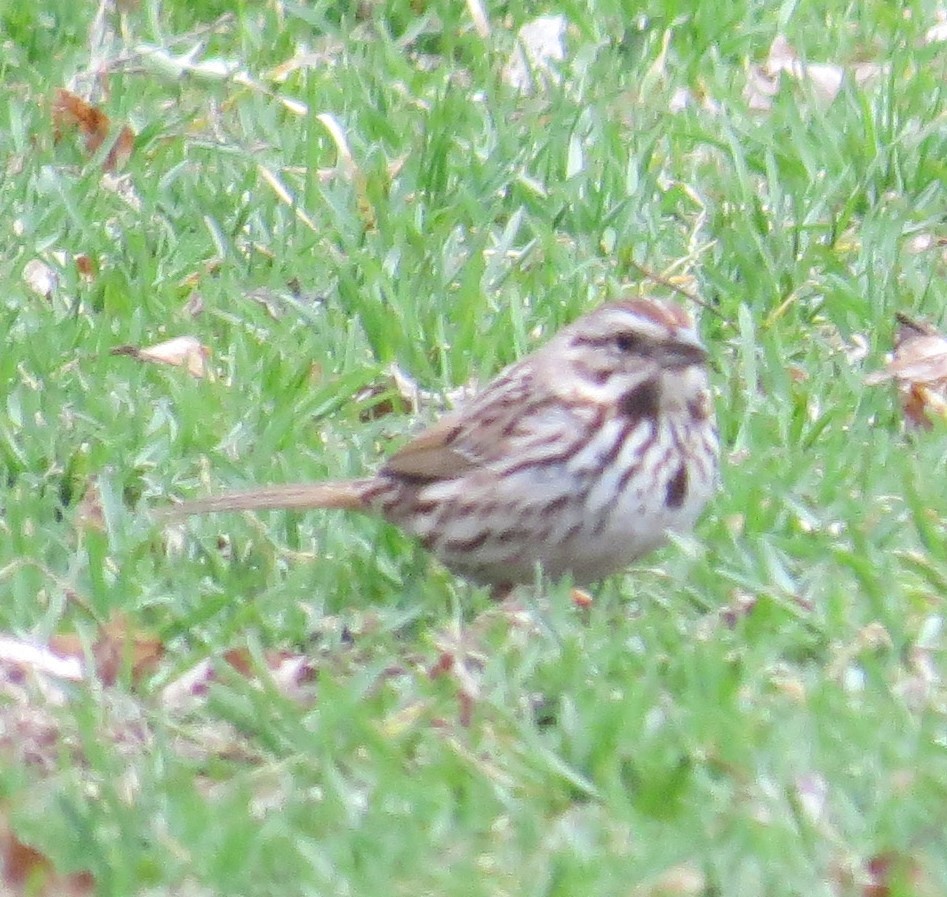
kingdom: Animalia
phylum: Chordata
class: Aves
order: Passeriformes
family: Passerellidae
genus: Melospiza
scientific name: Melospiza melodia
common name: Song sparrow
